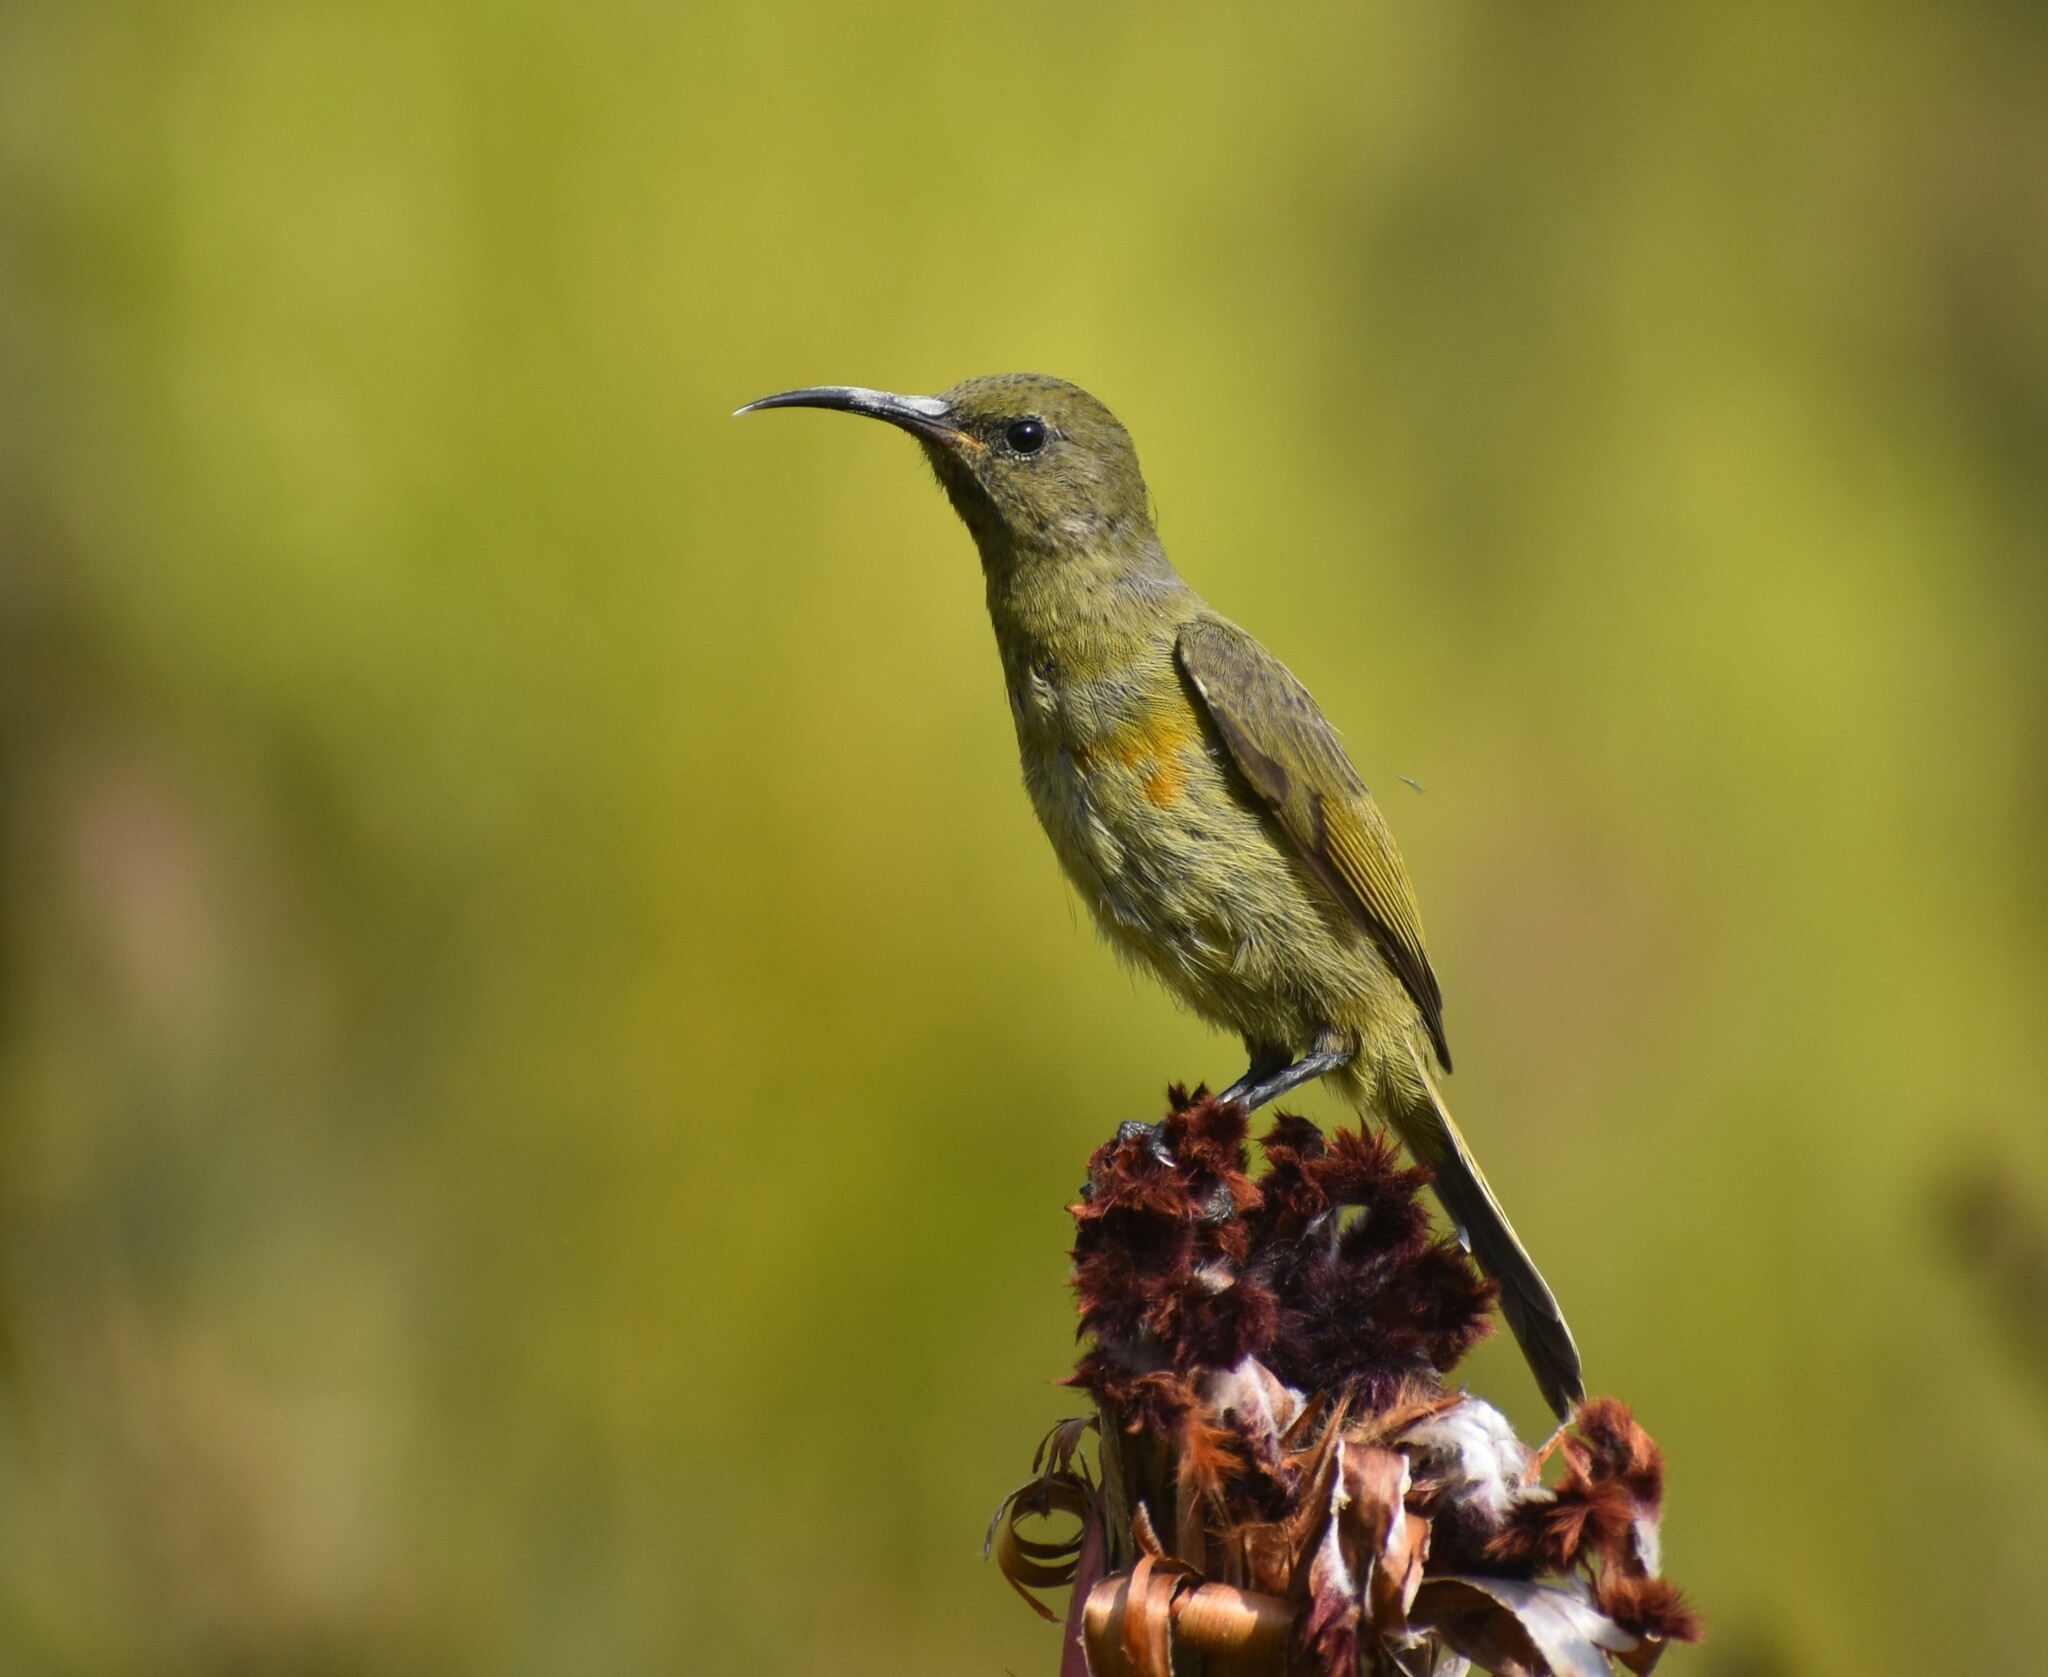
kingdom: Animalia
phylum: Chordata
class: Aves
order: Passeriformes
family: Nectariniidae
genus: Anthobaphes
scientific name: Anthobaphes violacea
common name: Orange-breasted sunbird
